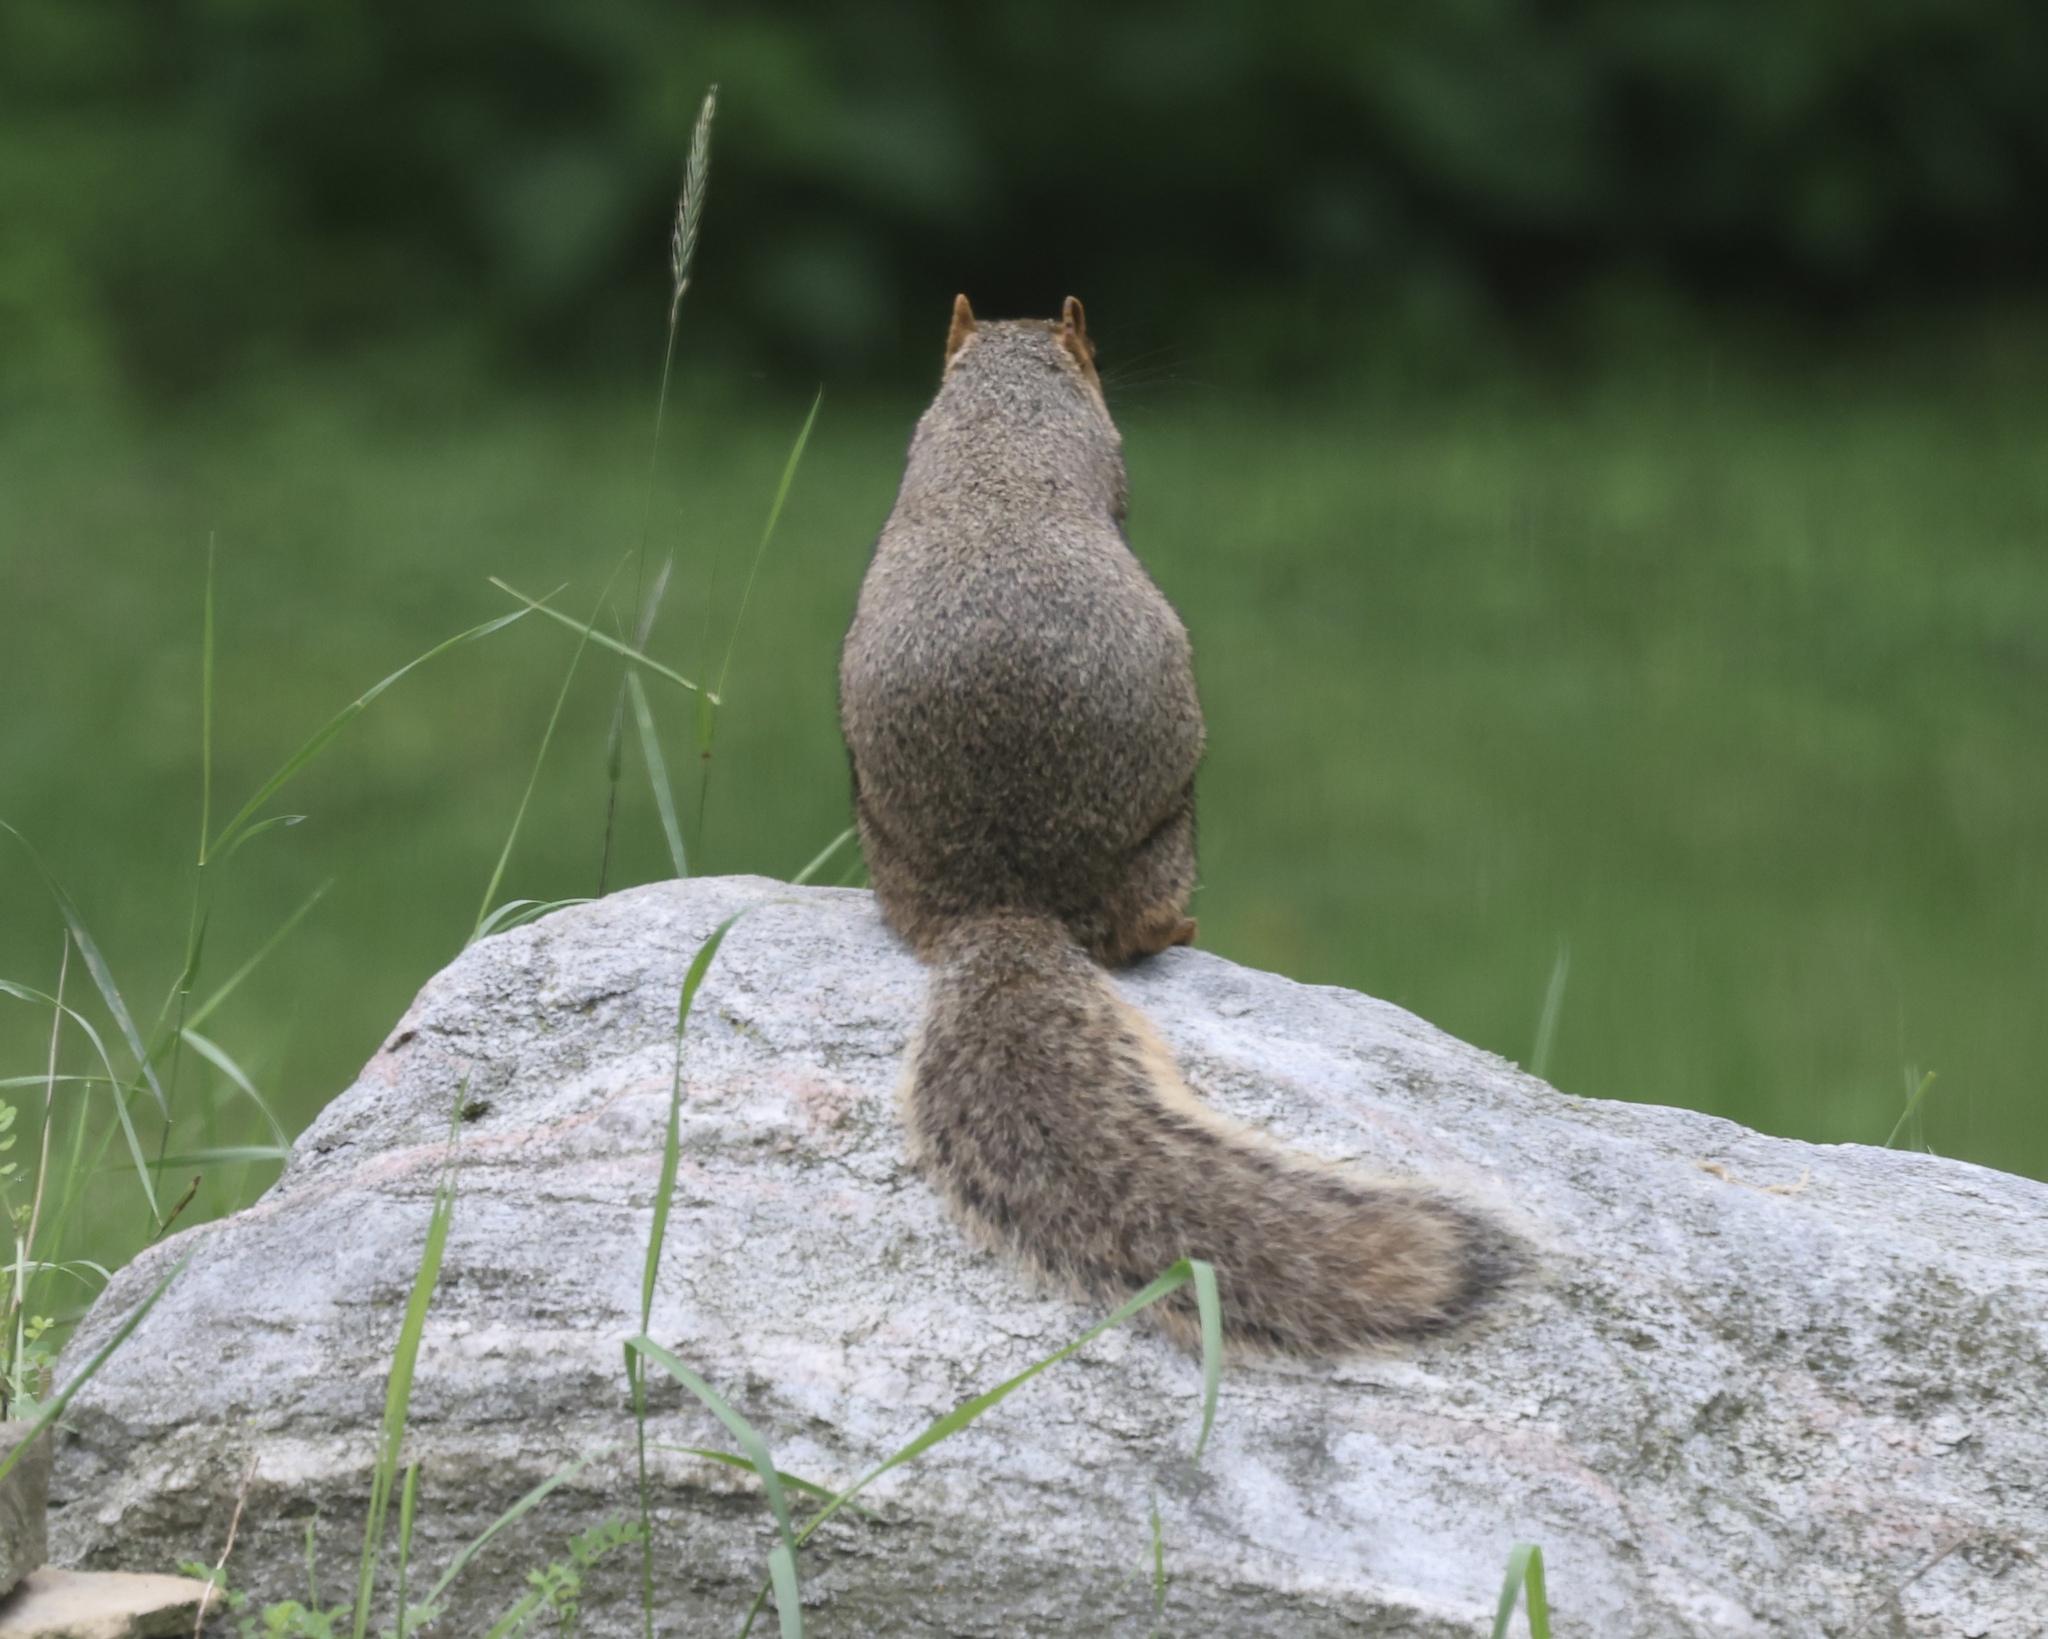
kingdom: Animalia
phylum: Chordata
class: Mammalia
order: Rodentia
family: Sciuridae
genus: Sciurus
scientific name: Sciurus niger
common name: Fox squirrel
